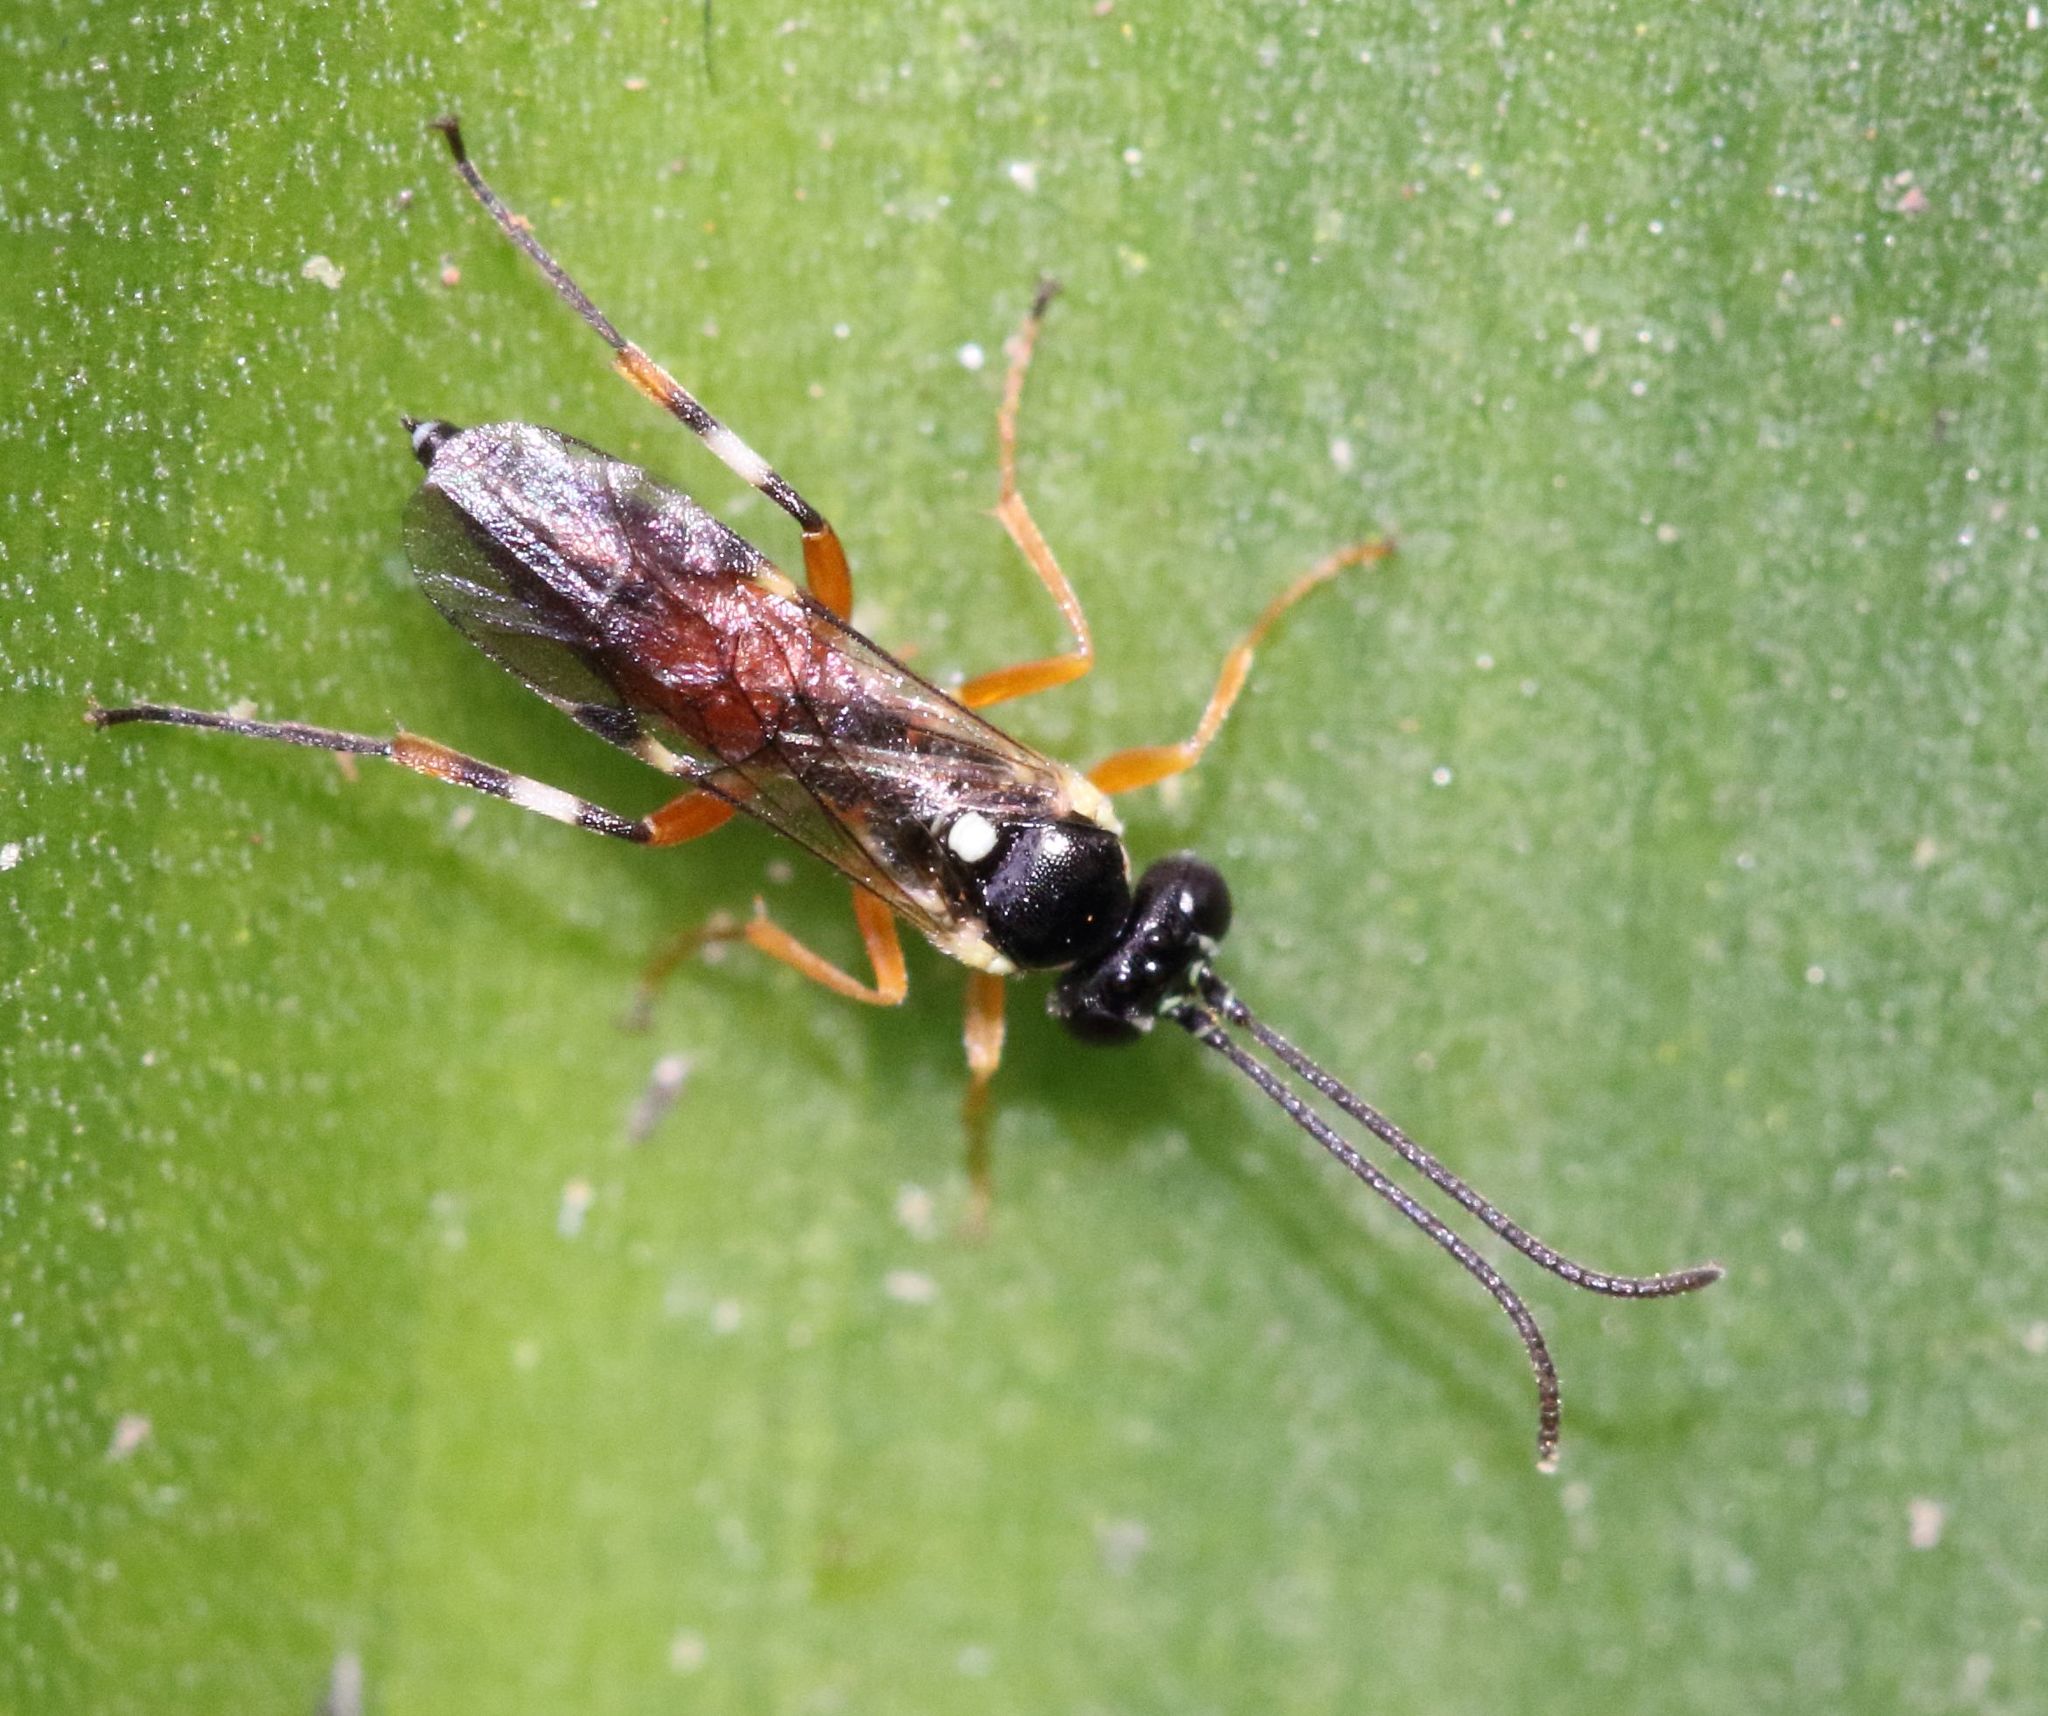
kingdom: Animalia
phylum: Arthropoda
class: Insecta
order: Hymenoptera
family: Ichneumonidae
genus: Diplazon
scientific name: Diplazon laetatorius
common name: Parasitoid wasp
